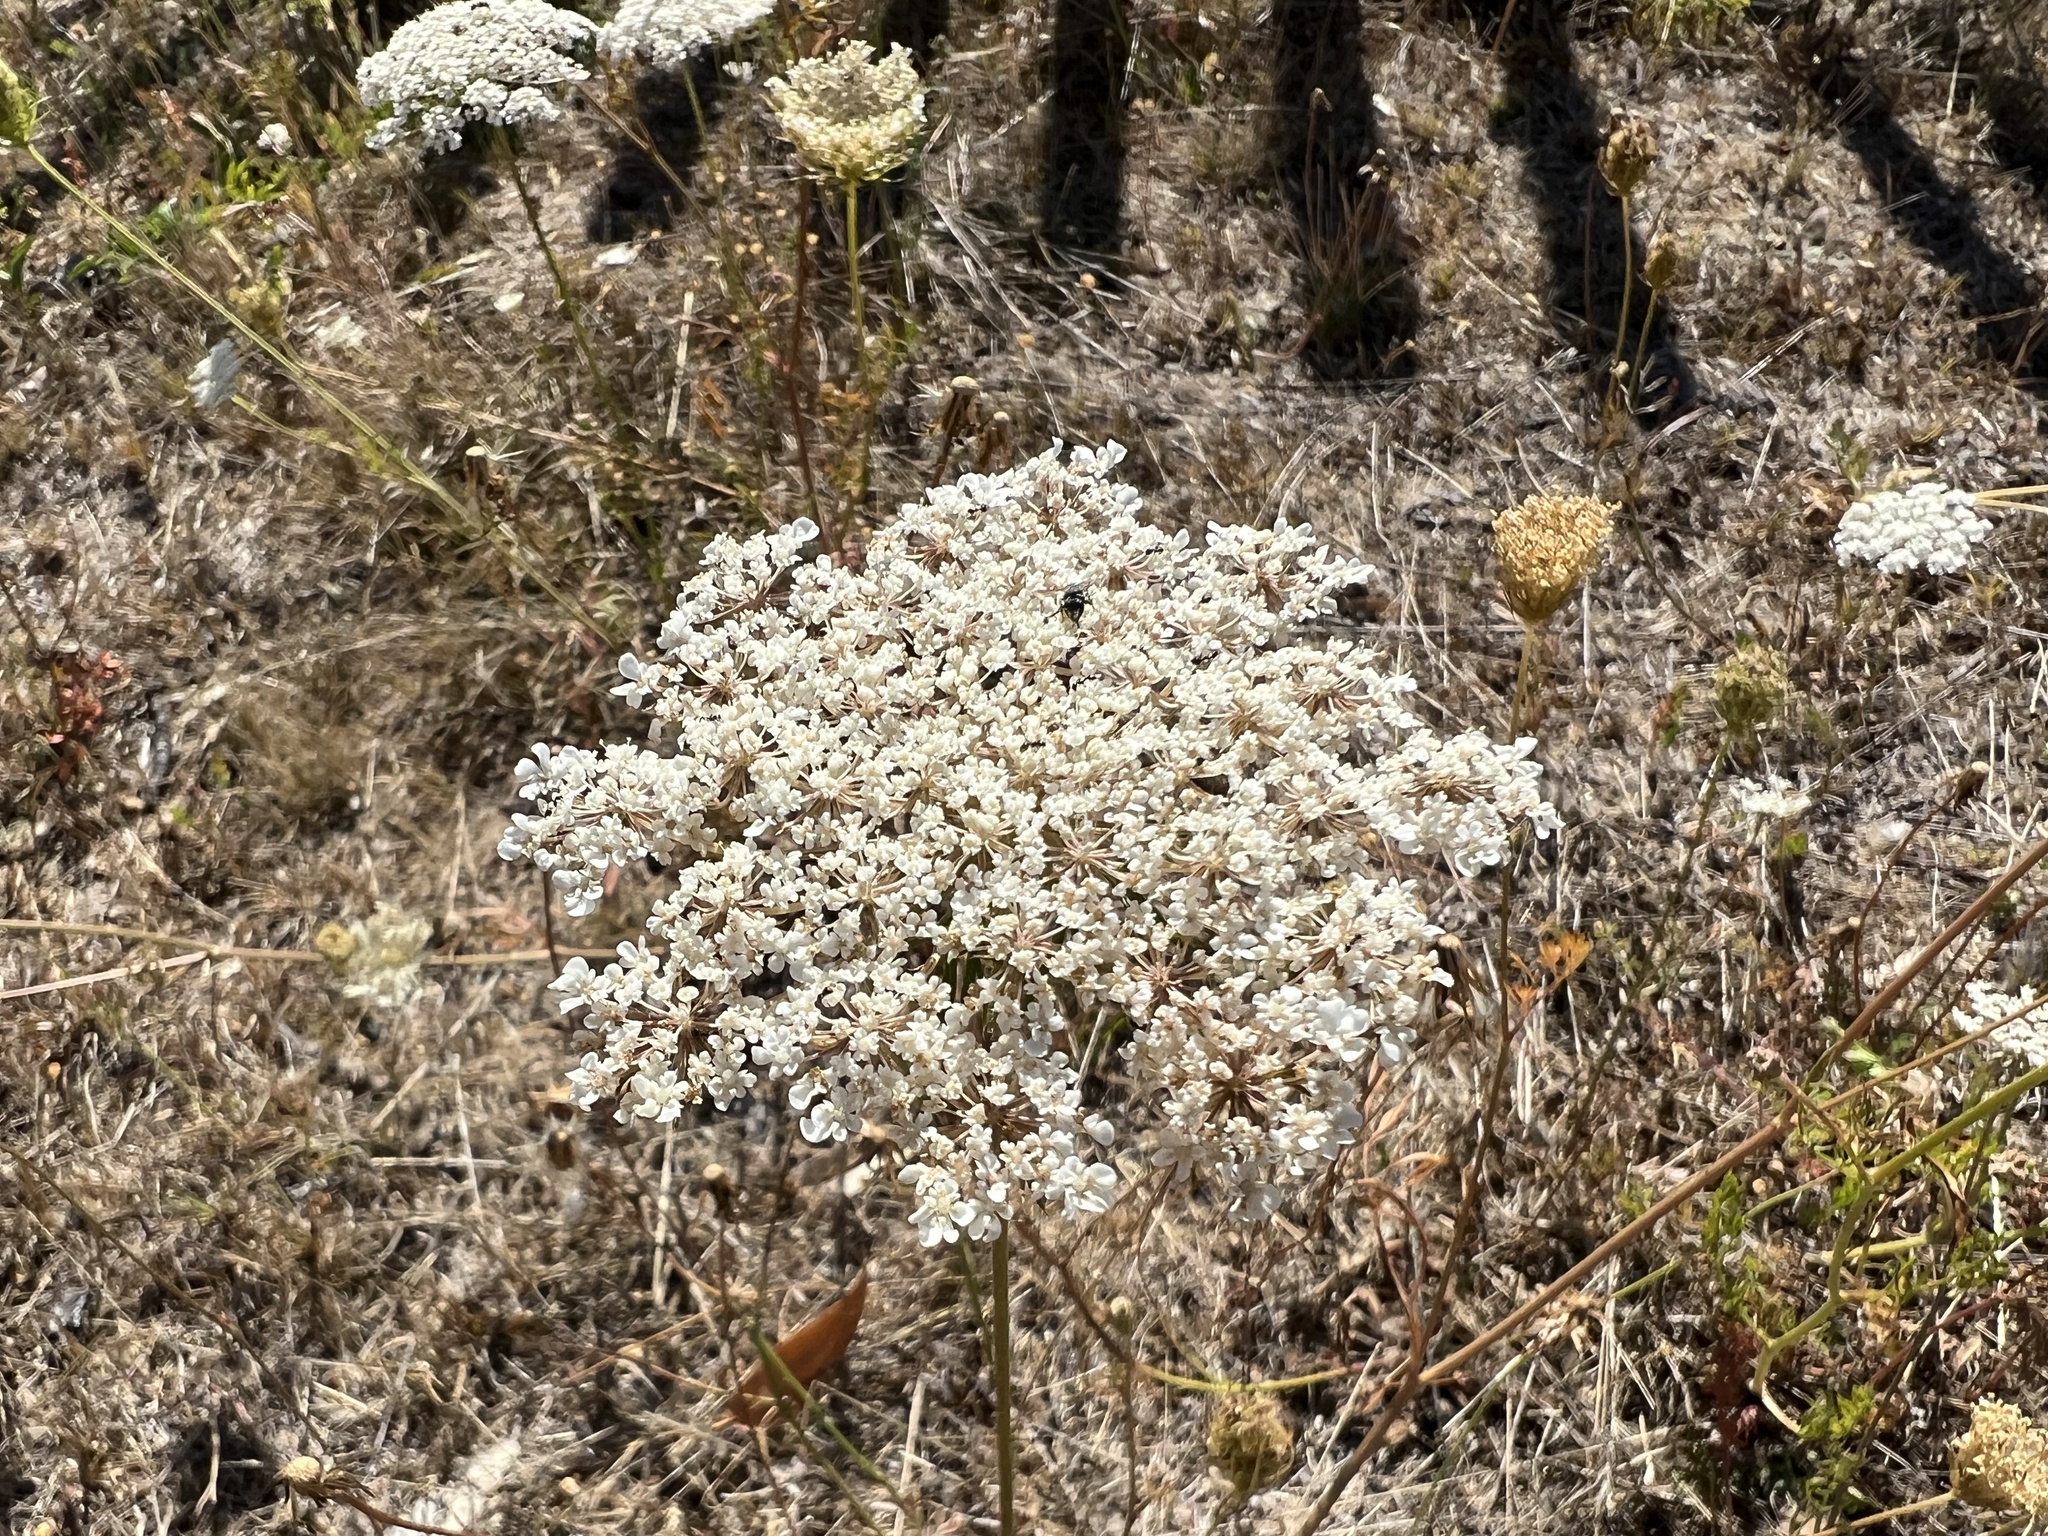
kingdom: Plantae
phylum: Tracheophyta
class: Magnoliopsida
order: Apiales
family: Apiaceae
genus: Daucus
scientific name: Daucus carota
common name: Wild carrot
